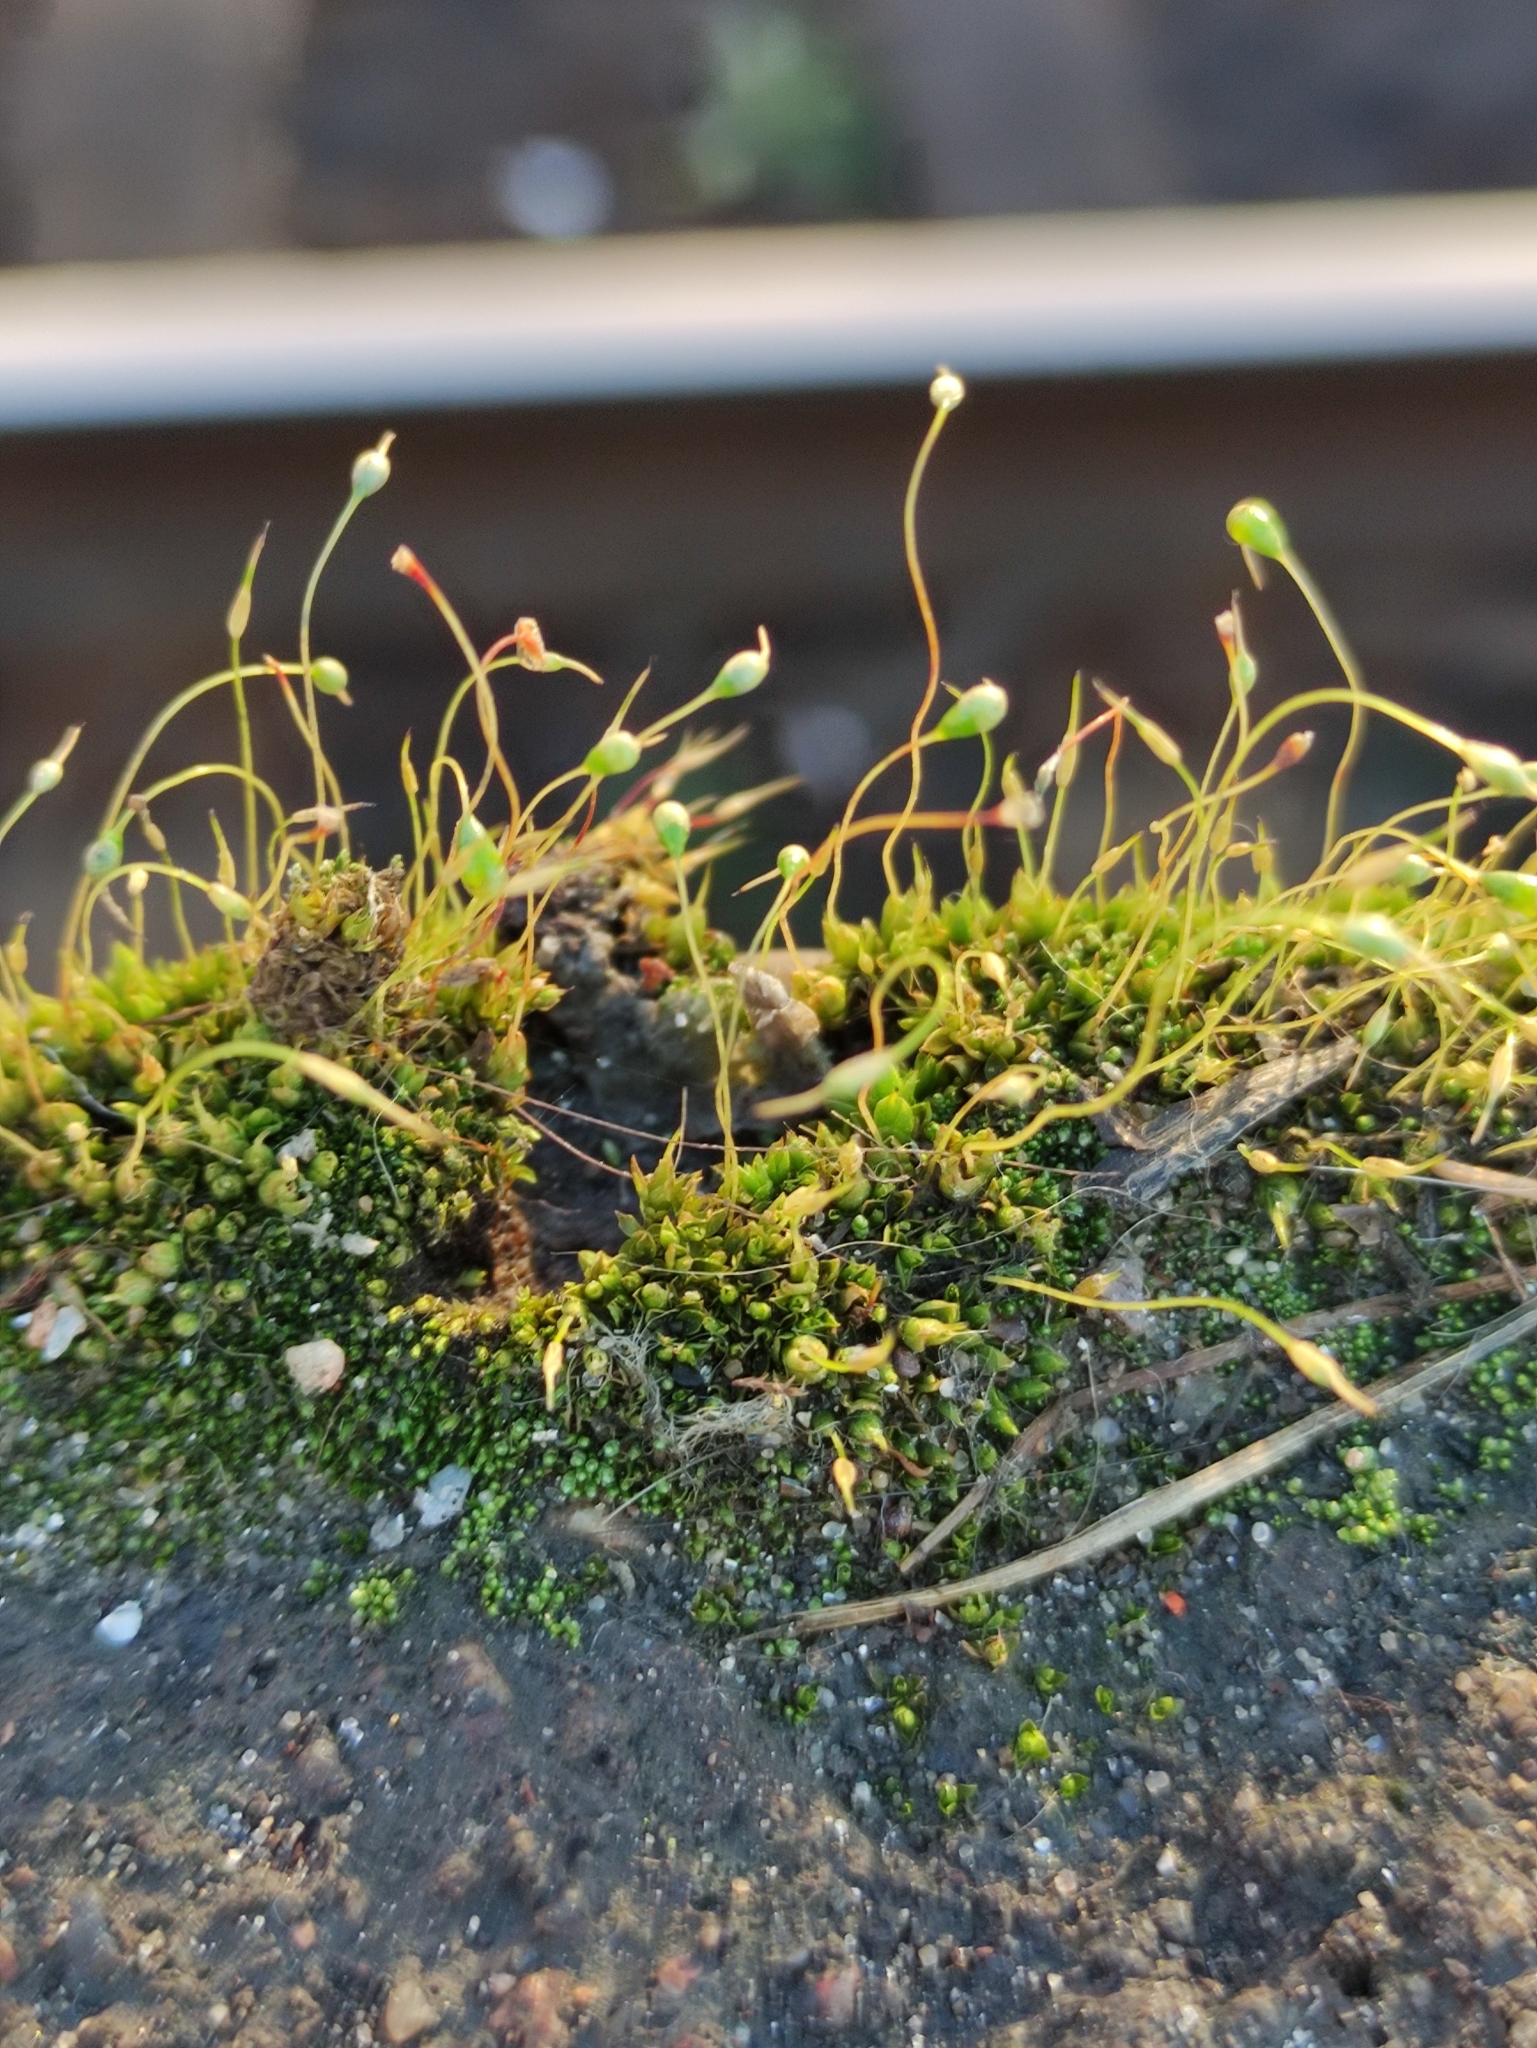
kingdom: Plantae
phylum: Bryophyta
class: Bryopsida
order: Funariales
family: Funariaceae
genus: Funaria
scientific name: Funaria hygrometrica
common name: Common cord moss
